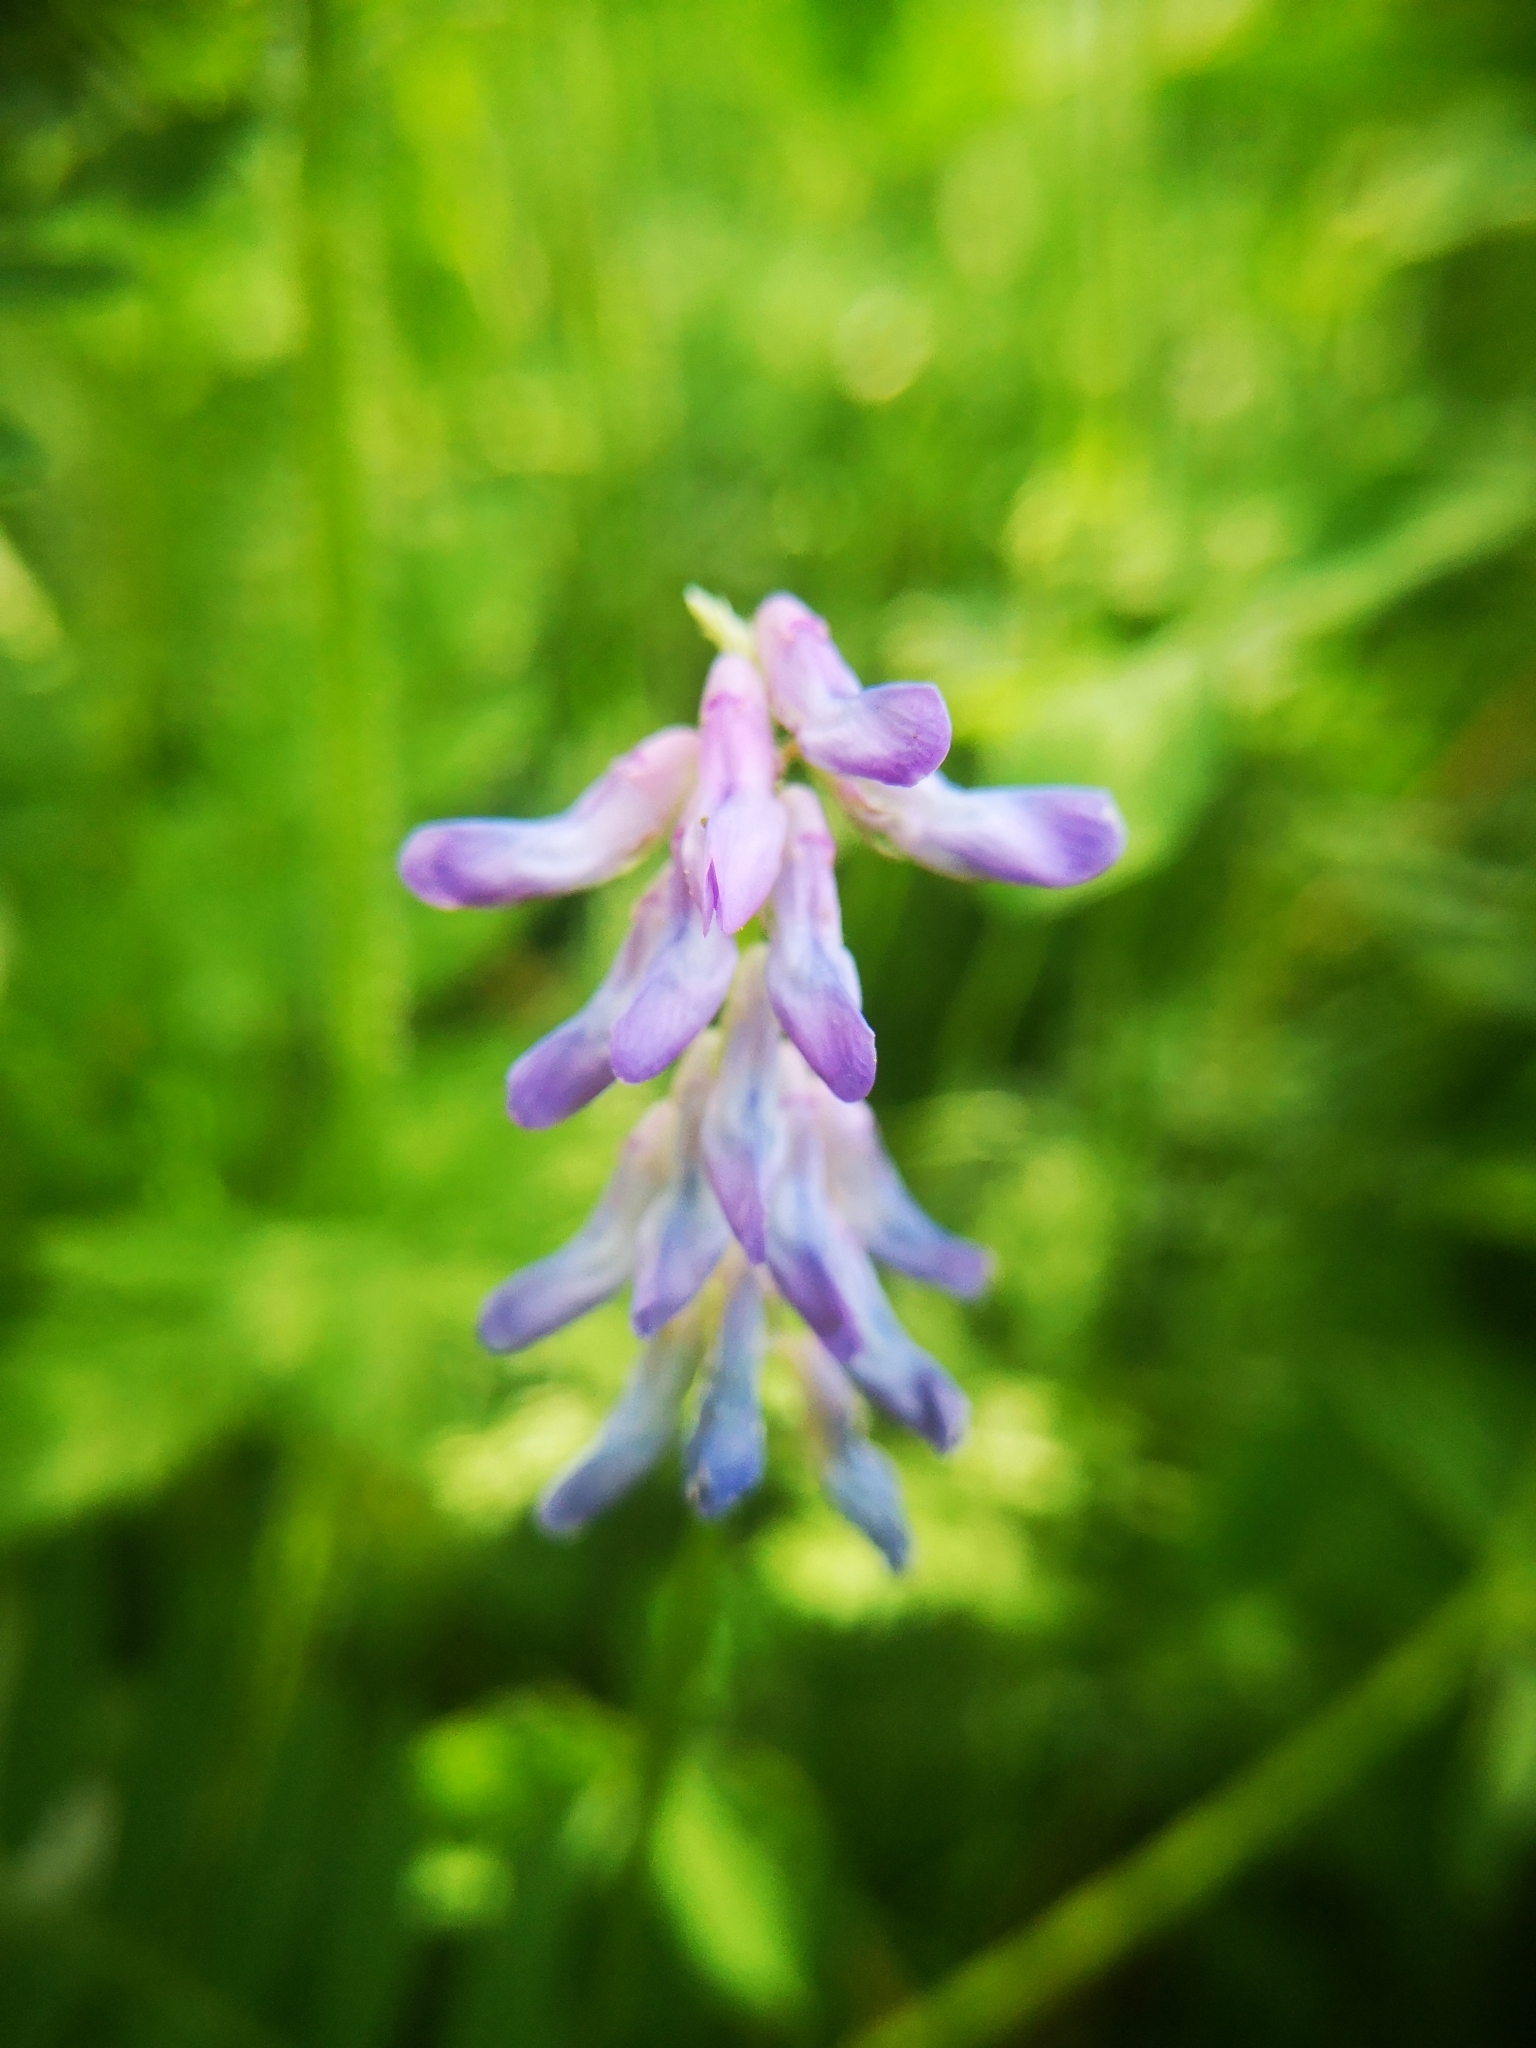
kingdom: Plantae
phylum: Tracheophyta
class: Magnoliopsida
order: Fabales
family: Fabaceae
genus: Vicia
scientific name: Vicia cracca
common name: Bird vetch
